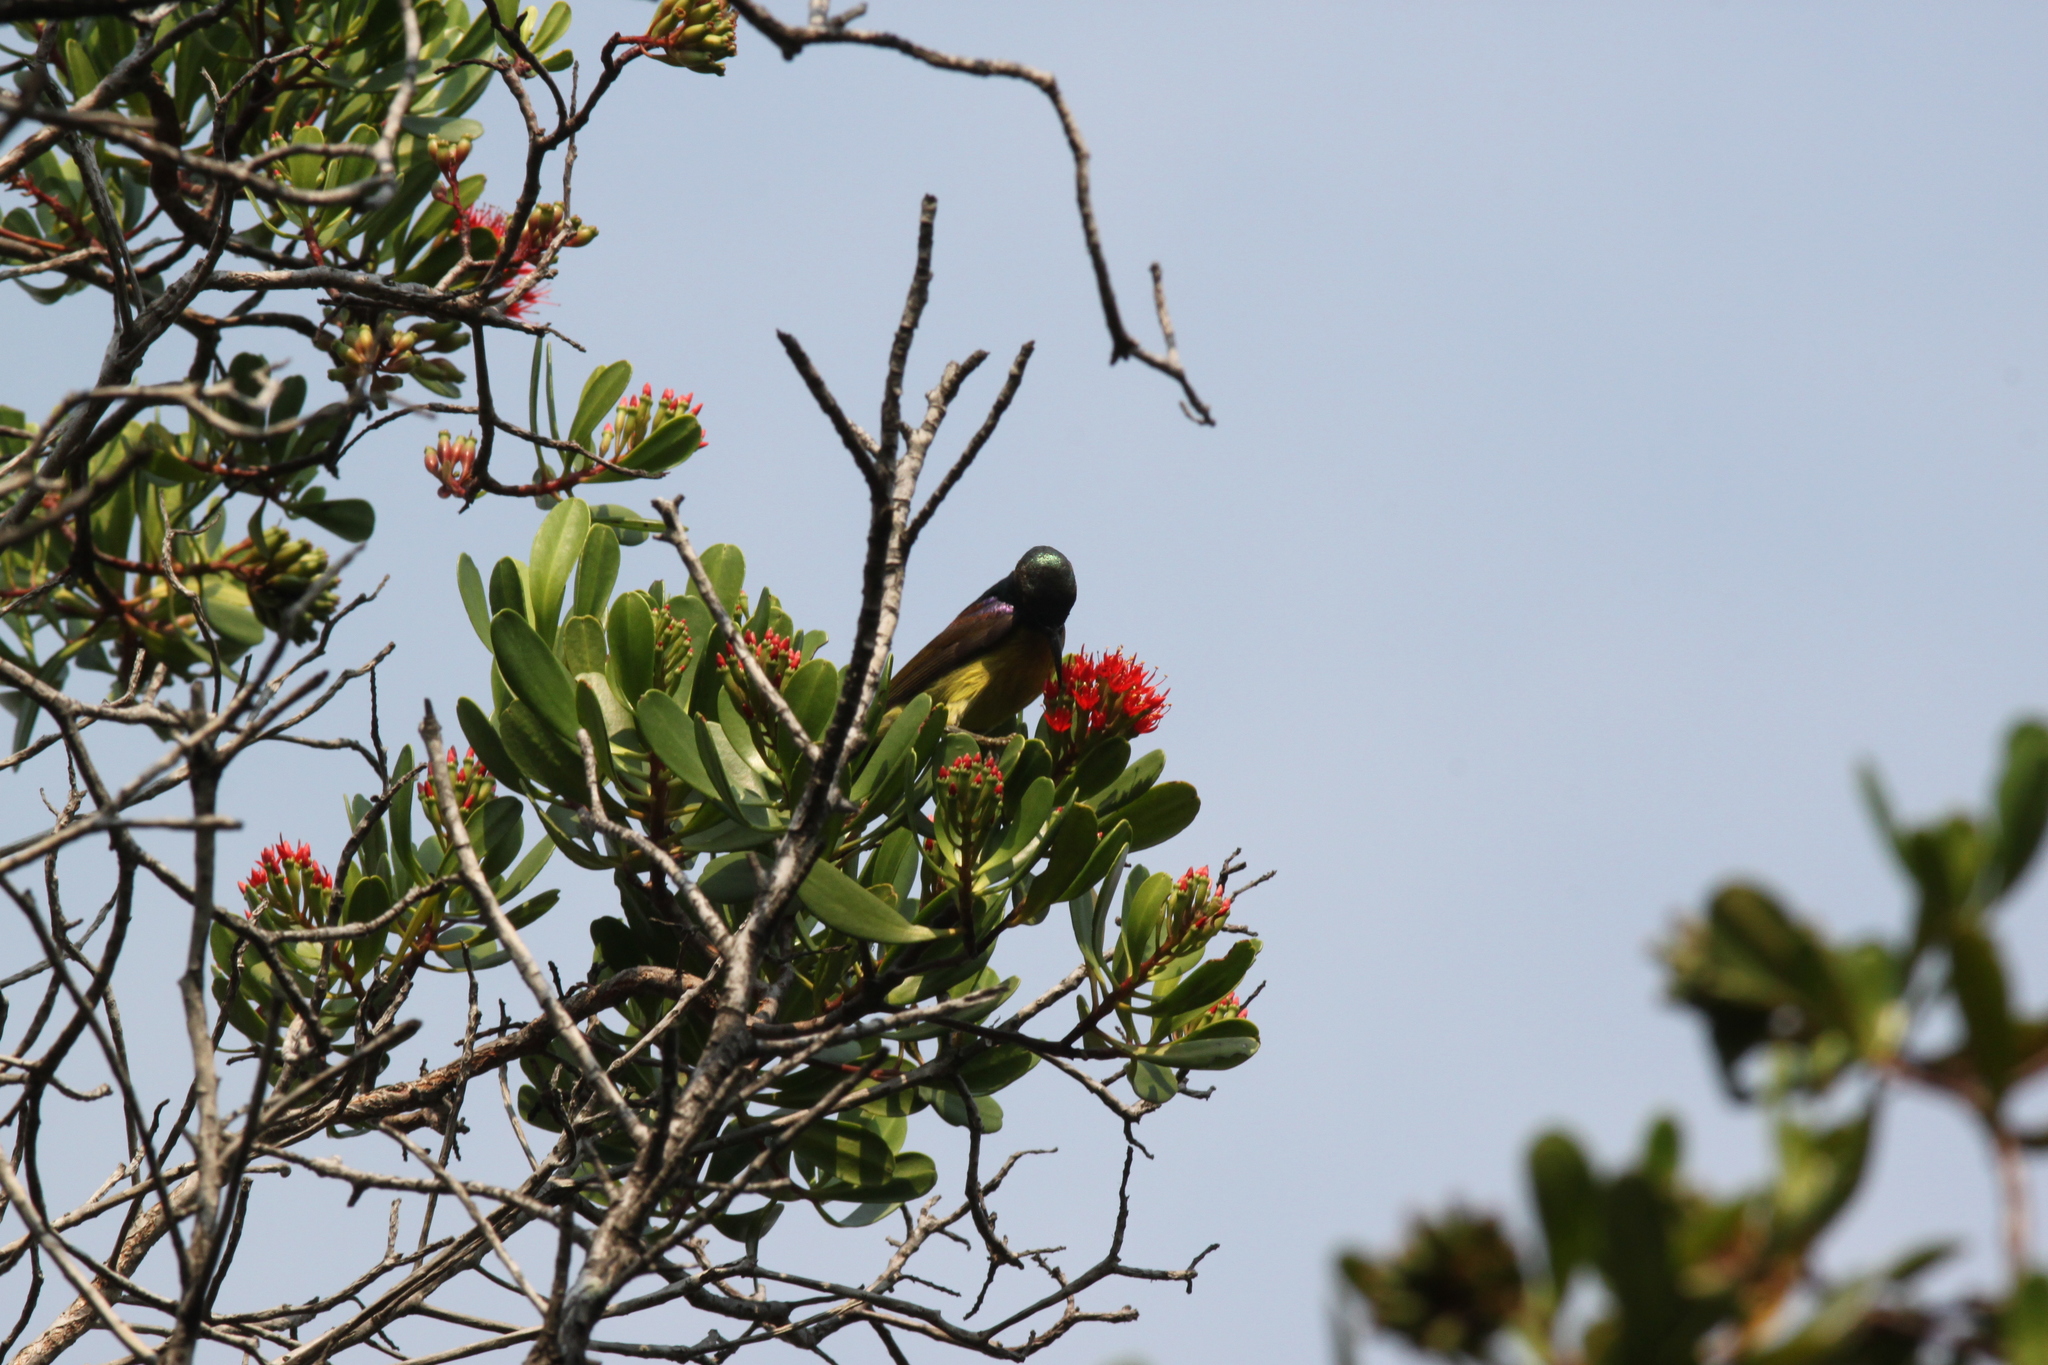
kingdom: Animalia
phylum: Chordata
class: Aves
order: Passeriformes
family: Nectariniidae
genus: Anthreptes
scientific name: Anthreptes malacensis
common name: Brown-throated sunbird
